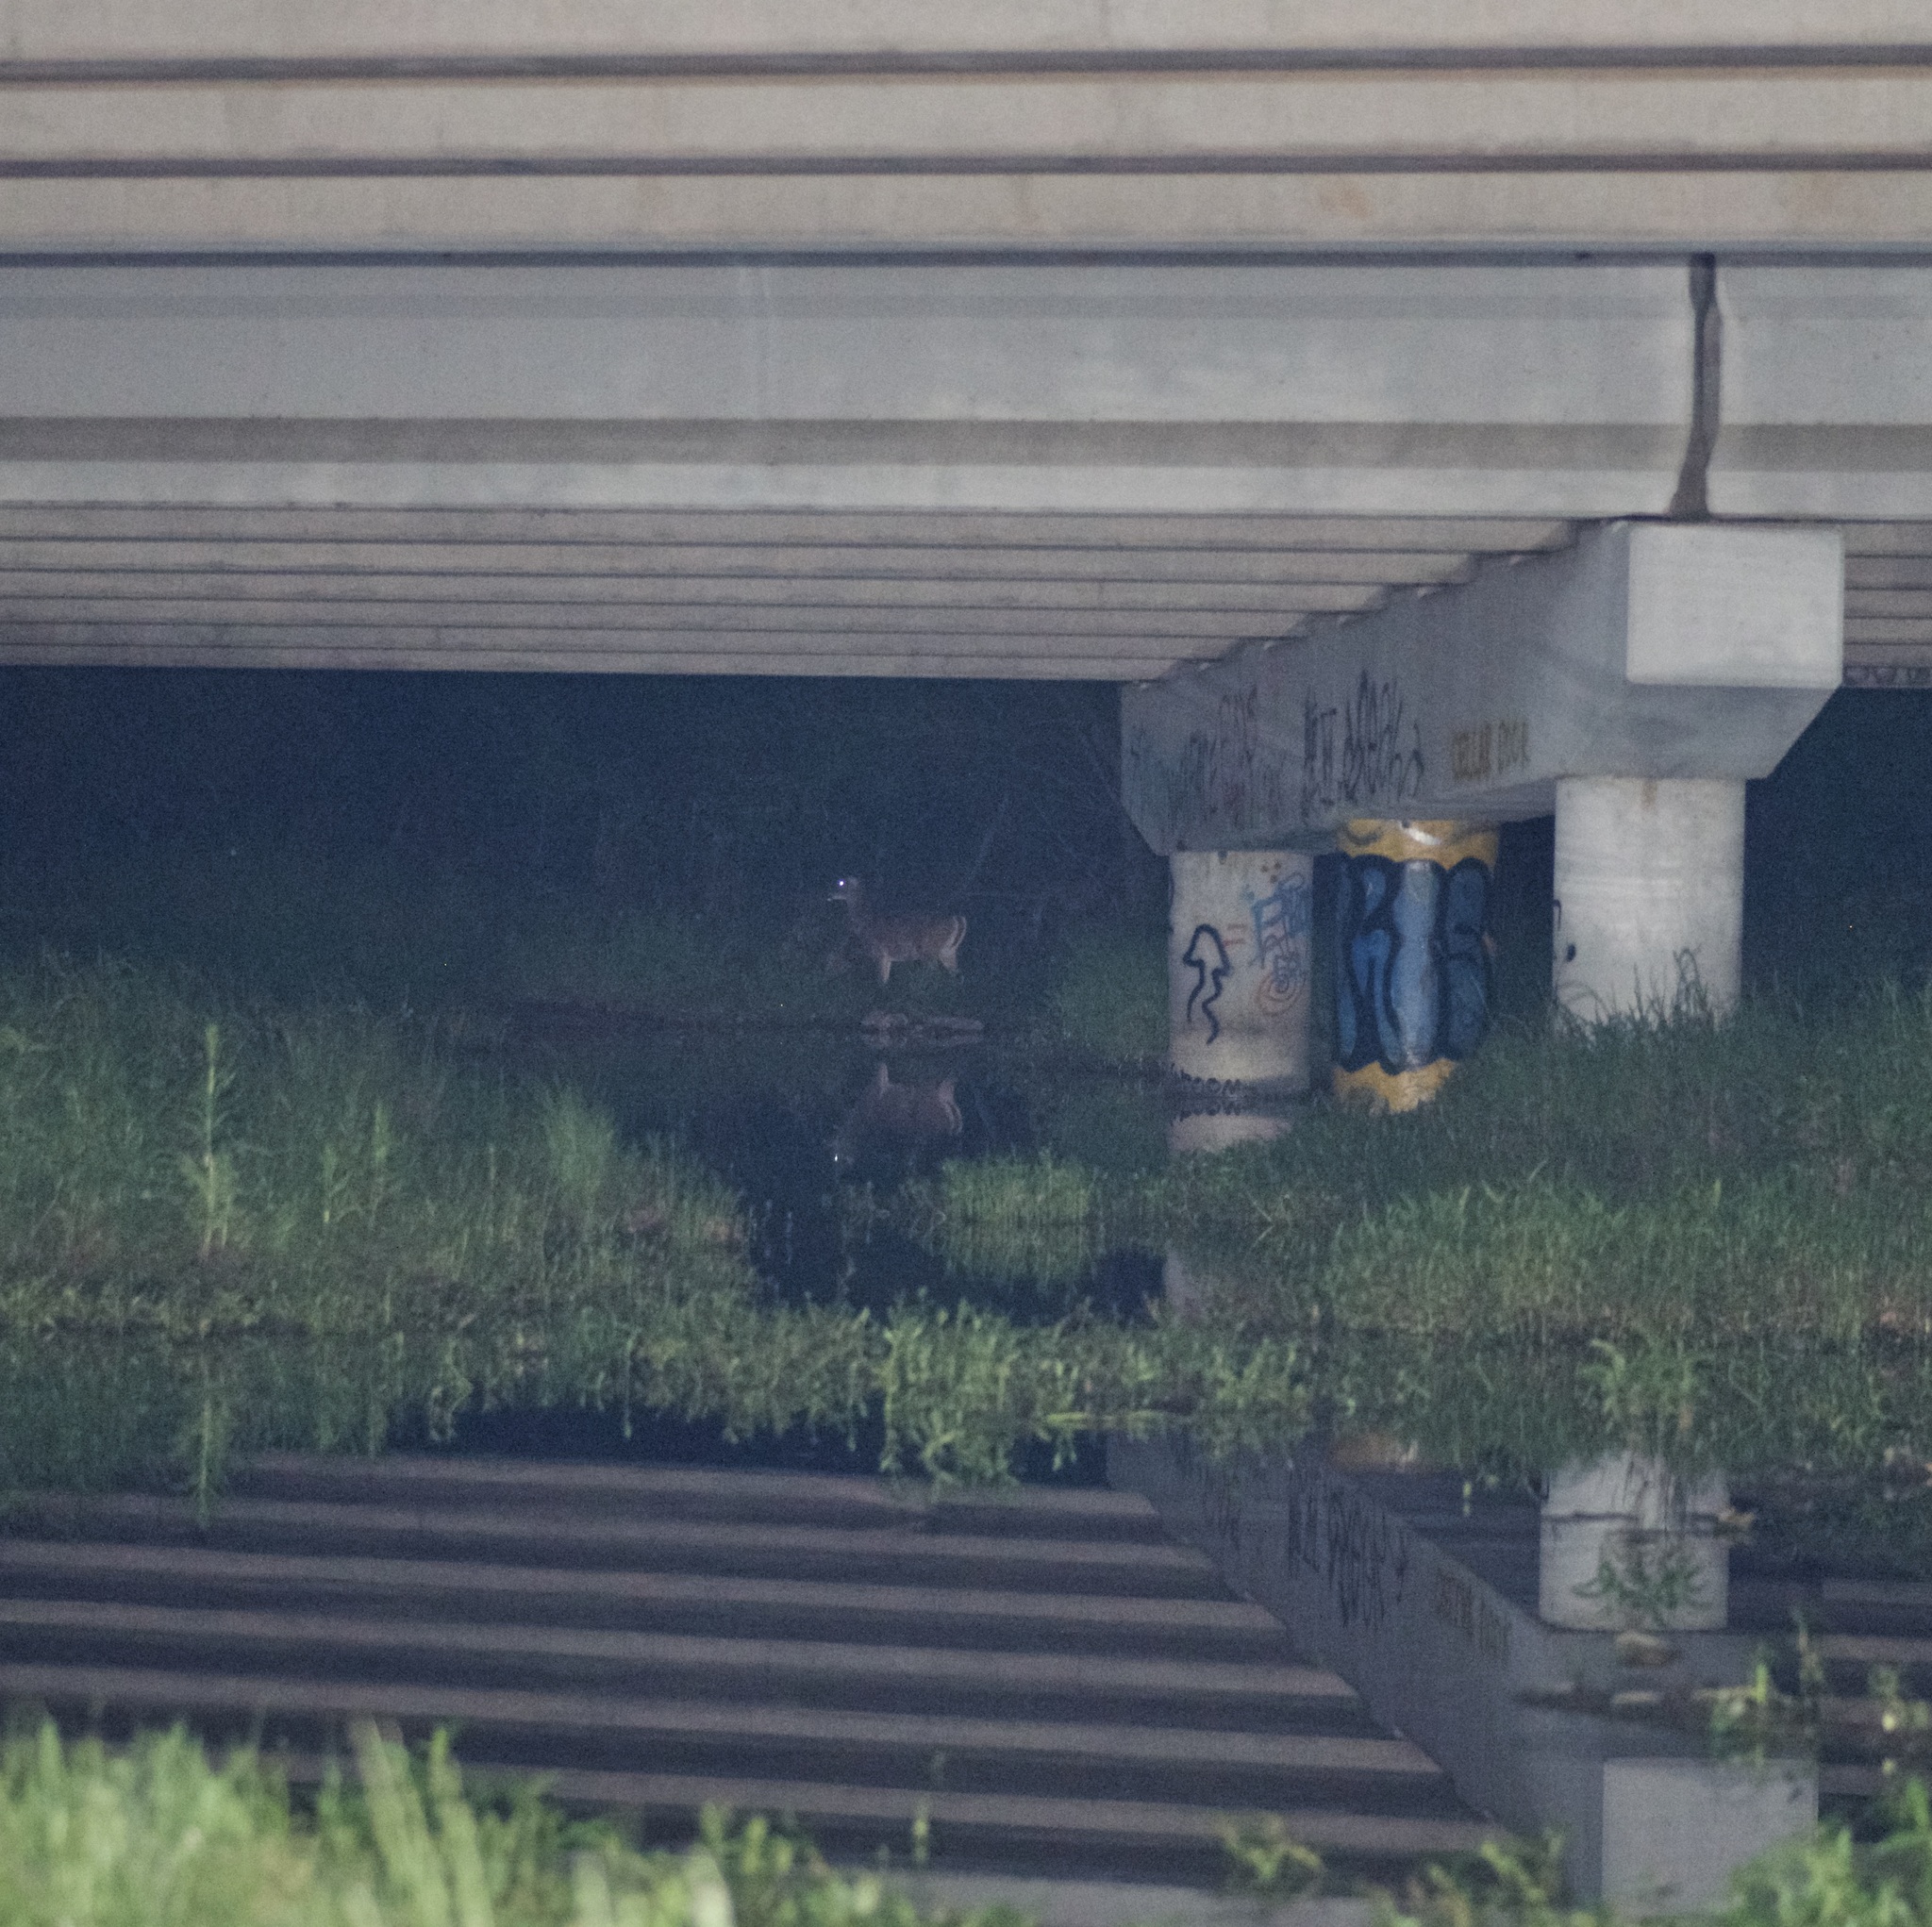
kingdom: Animalia
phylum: Chordata
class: Mammalia
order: Artiodactyla
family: Cervidae
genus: Odocoileus
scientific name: Odocoileus virginianus
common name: White-tailed deer
